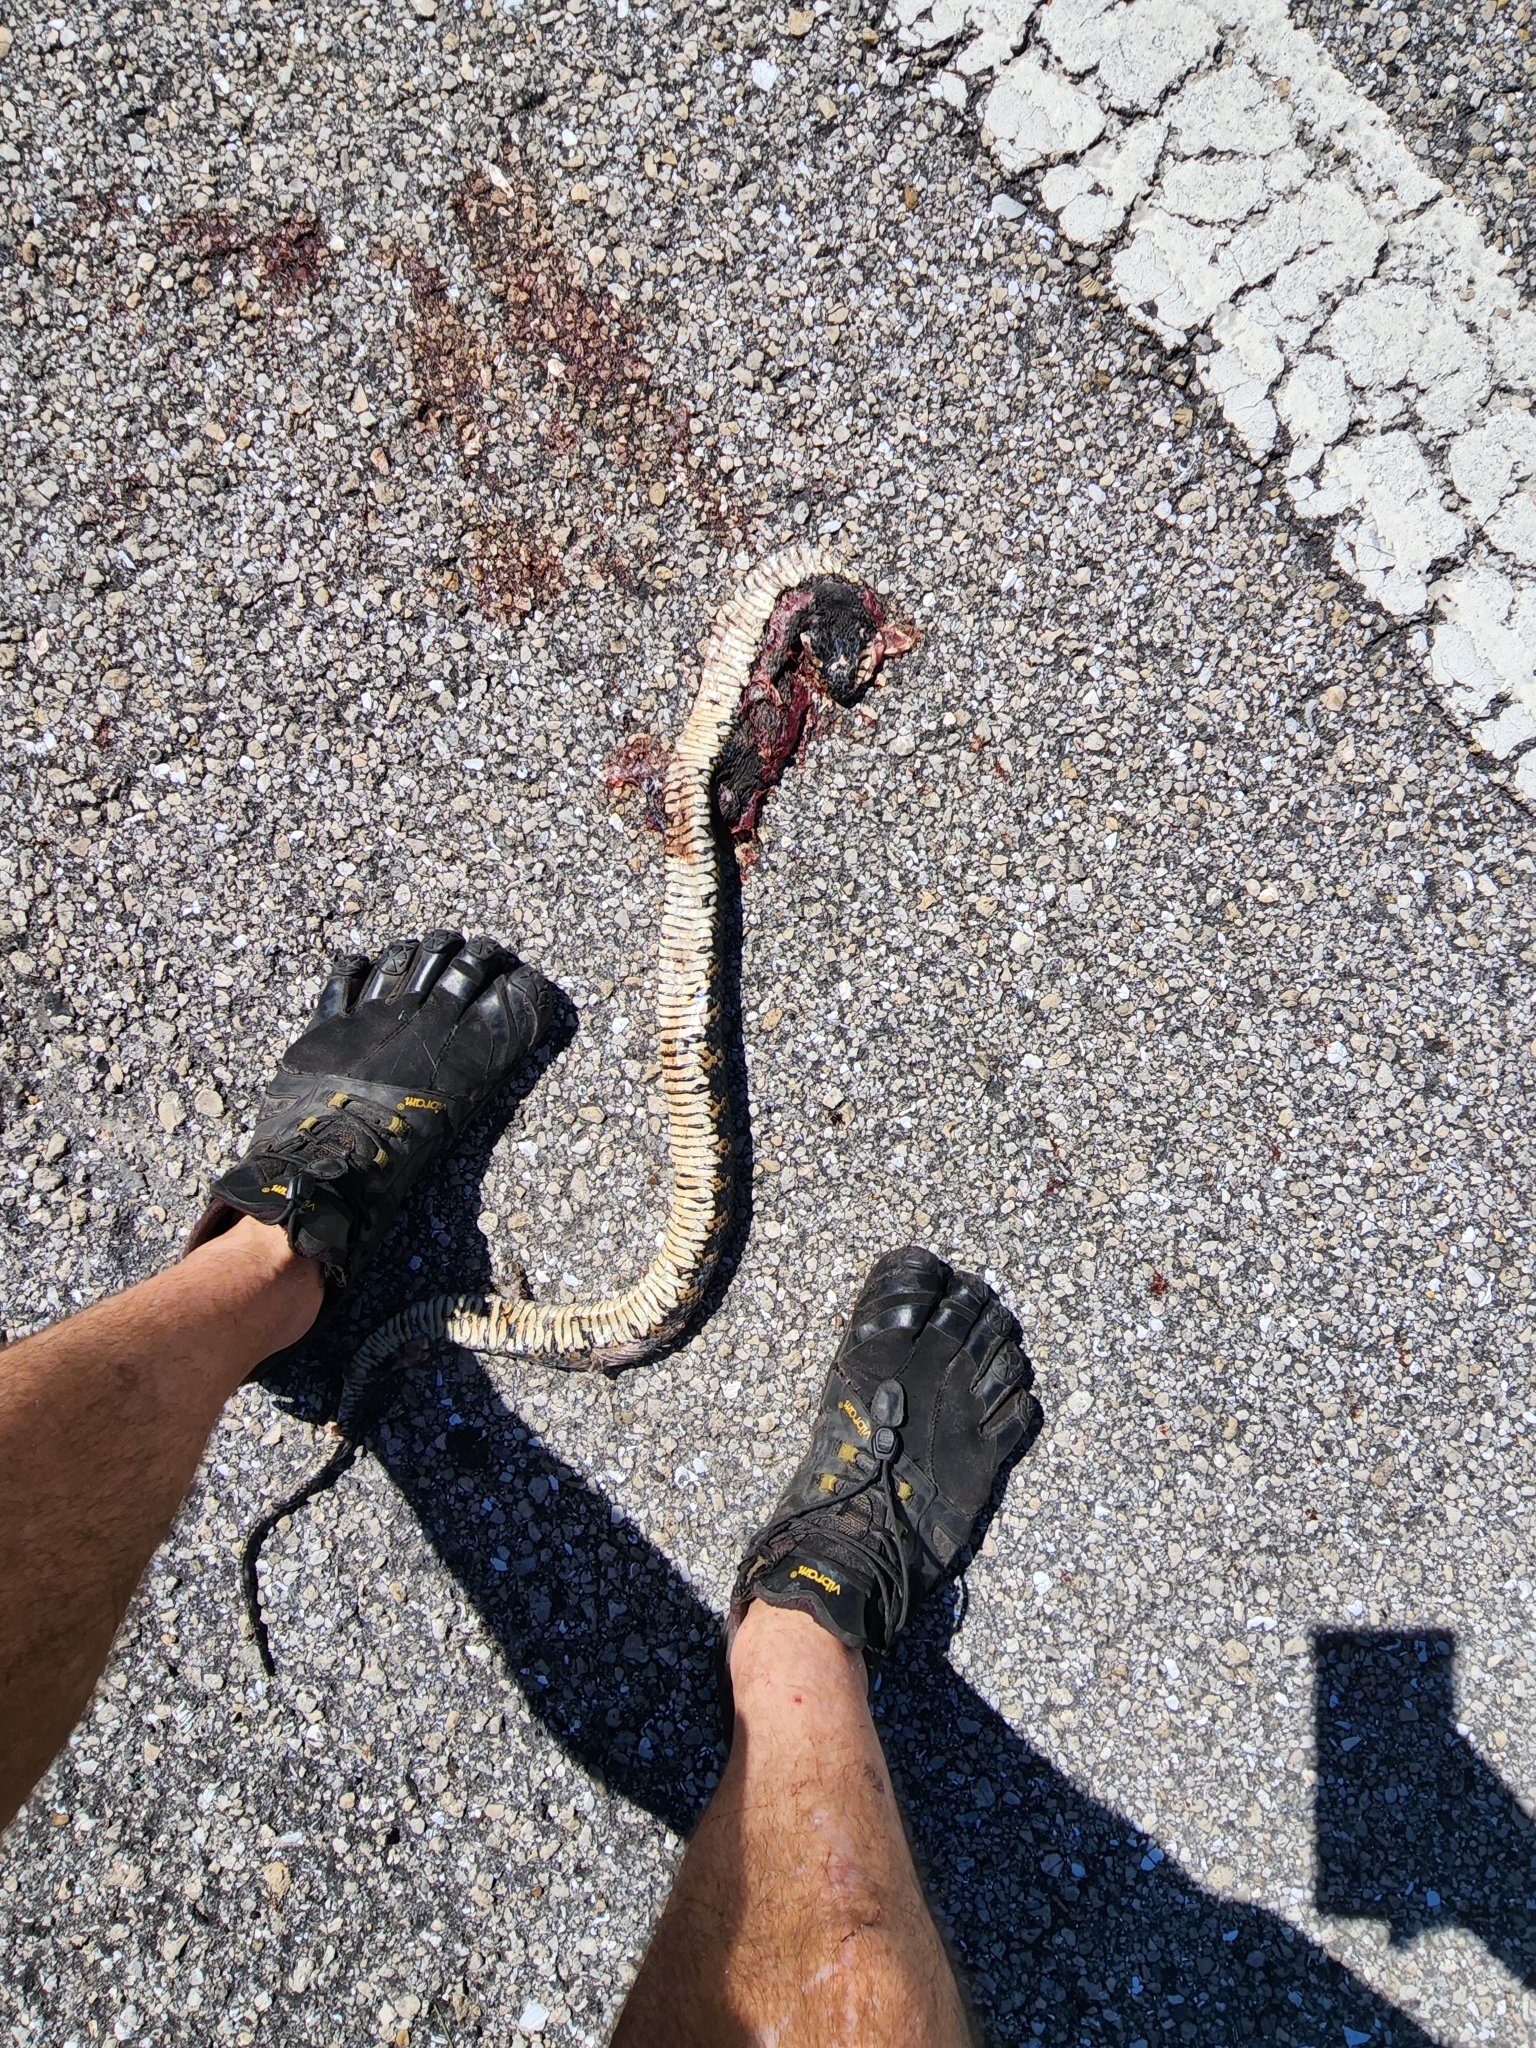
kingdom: Animalia
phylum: Chordata
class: Squamata
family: Colubridae
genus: Nerodia
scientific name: Nerodia fasciata
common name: Southern water snake
